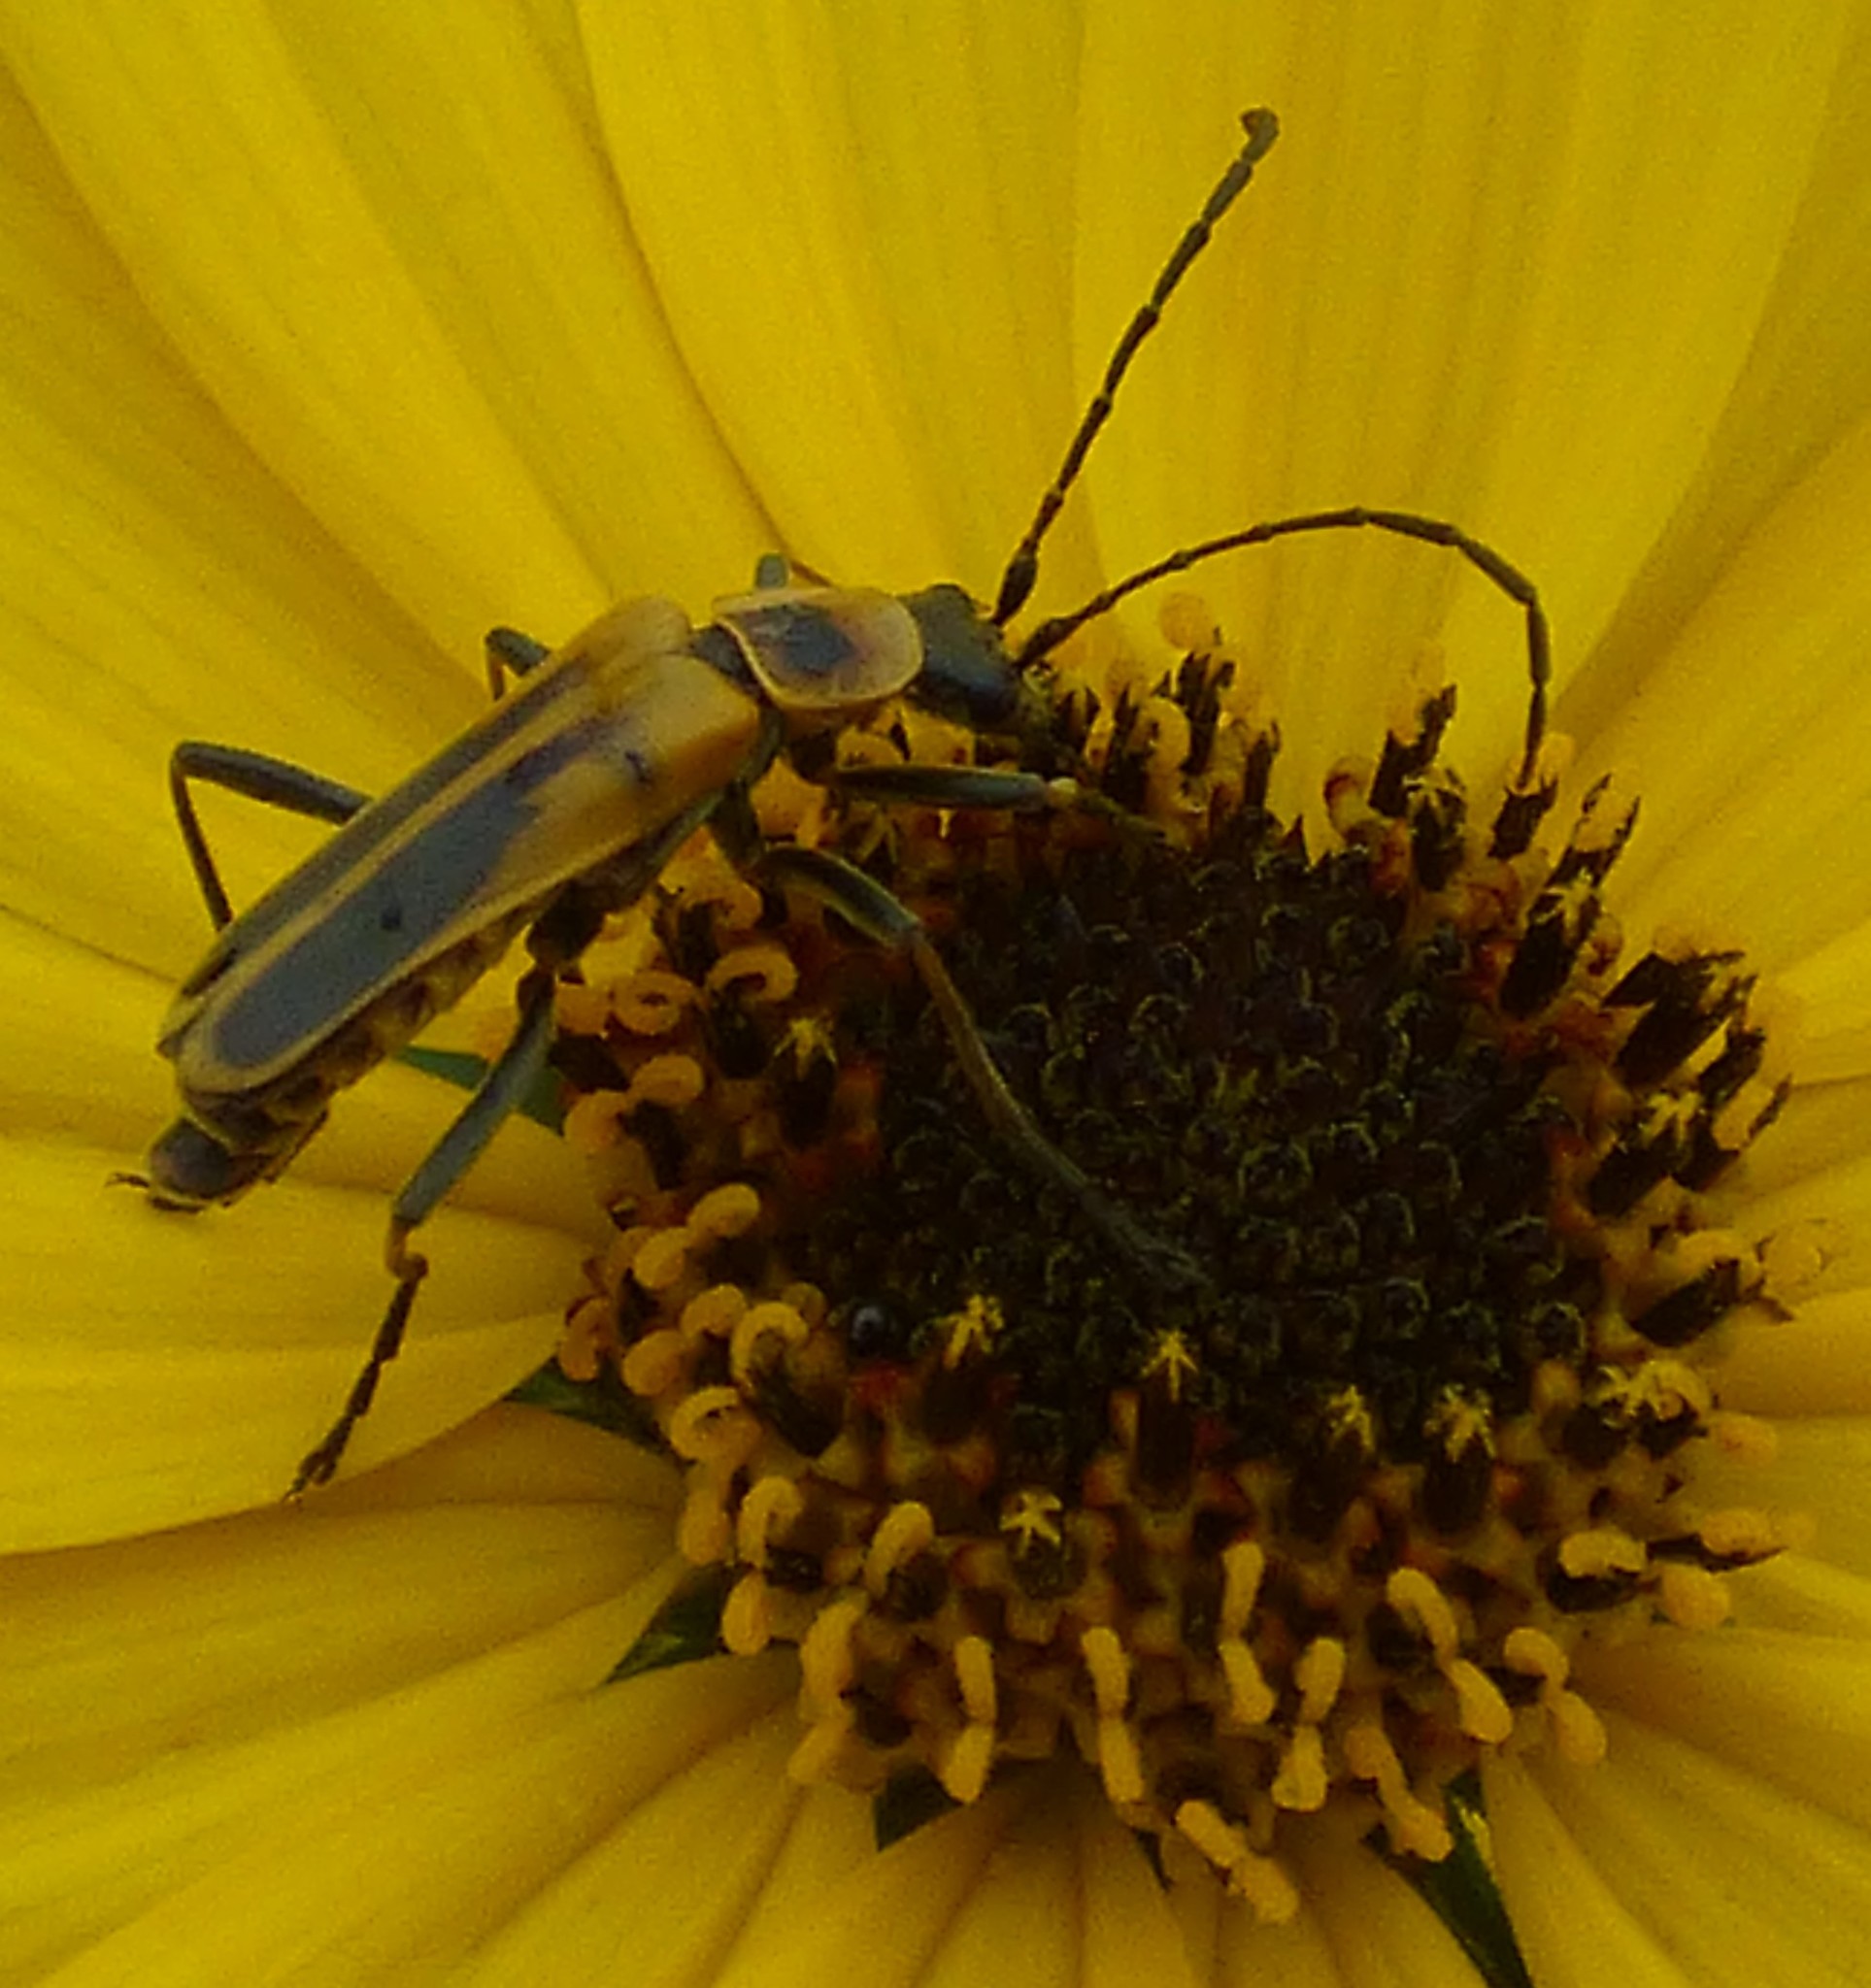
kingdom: Animalia
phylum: Arthropoda
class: Insecta
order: Coleoptera
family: Cantharidae
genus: Chauliognathus
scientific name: Chauliognathus pensylvanicus
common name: Goldenrod soldier beetle
